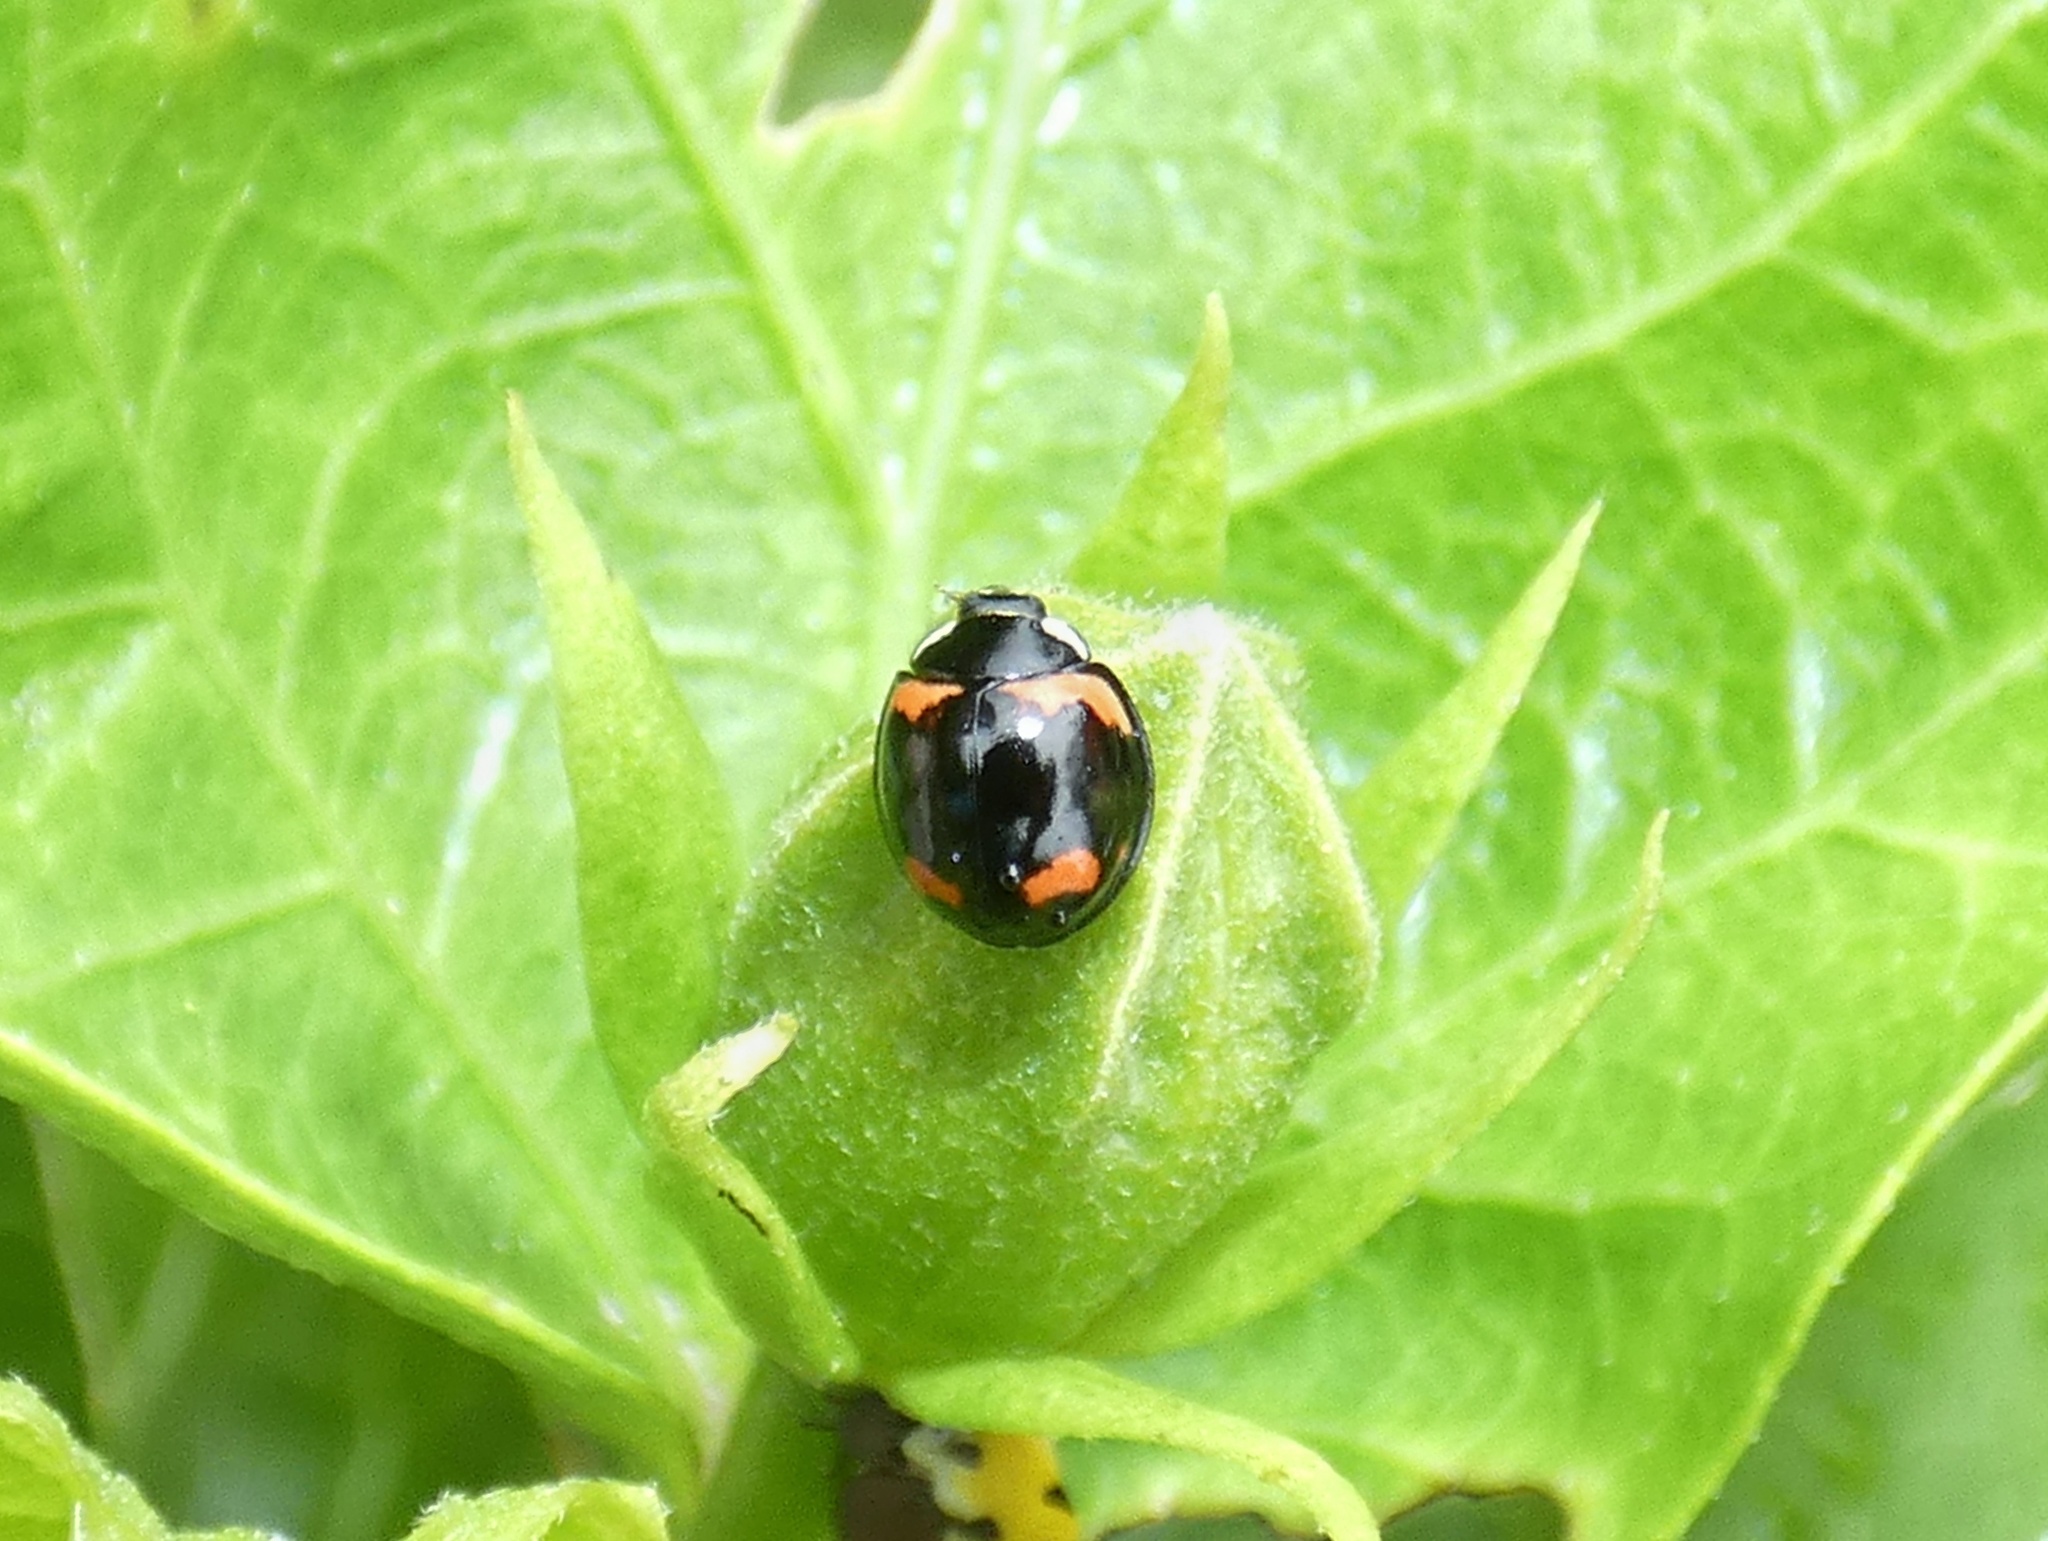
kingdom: Animalia
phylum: Arthropoda
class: Insecta
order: Coleoptera
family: Coccinellidae
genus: Cheilomenes
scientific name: Cheilomenes sexmaculata
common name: Ladybird beetle
